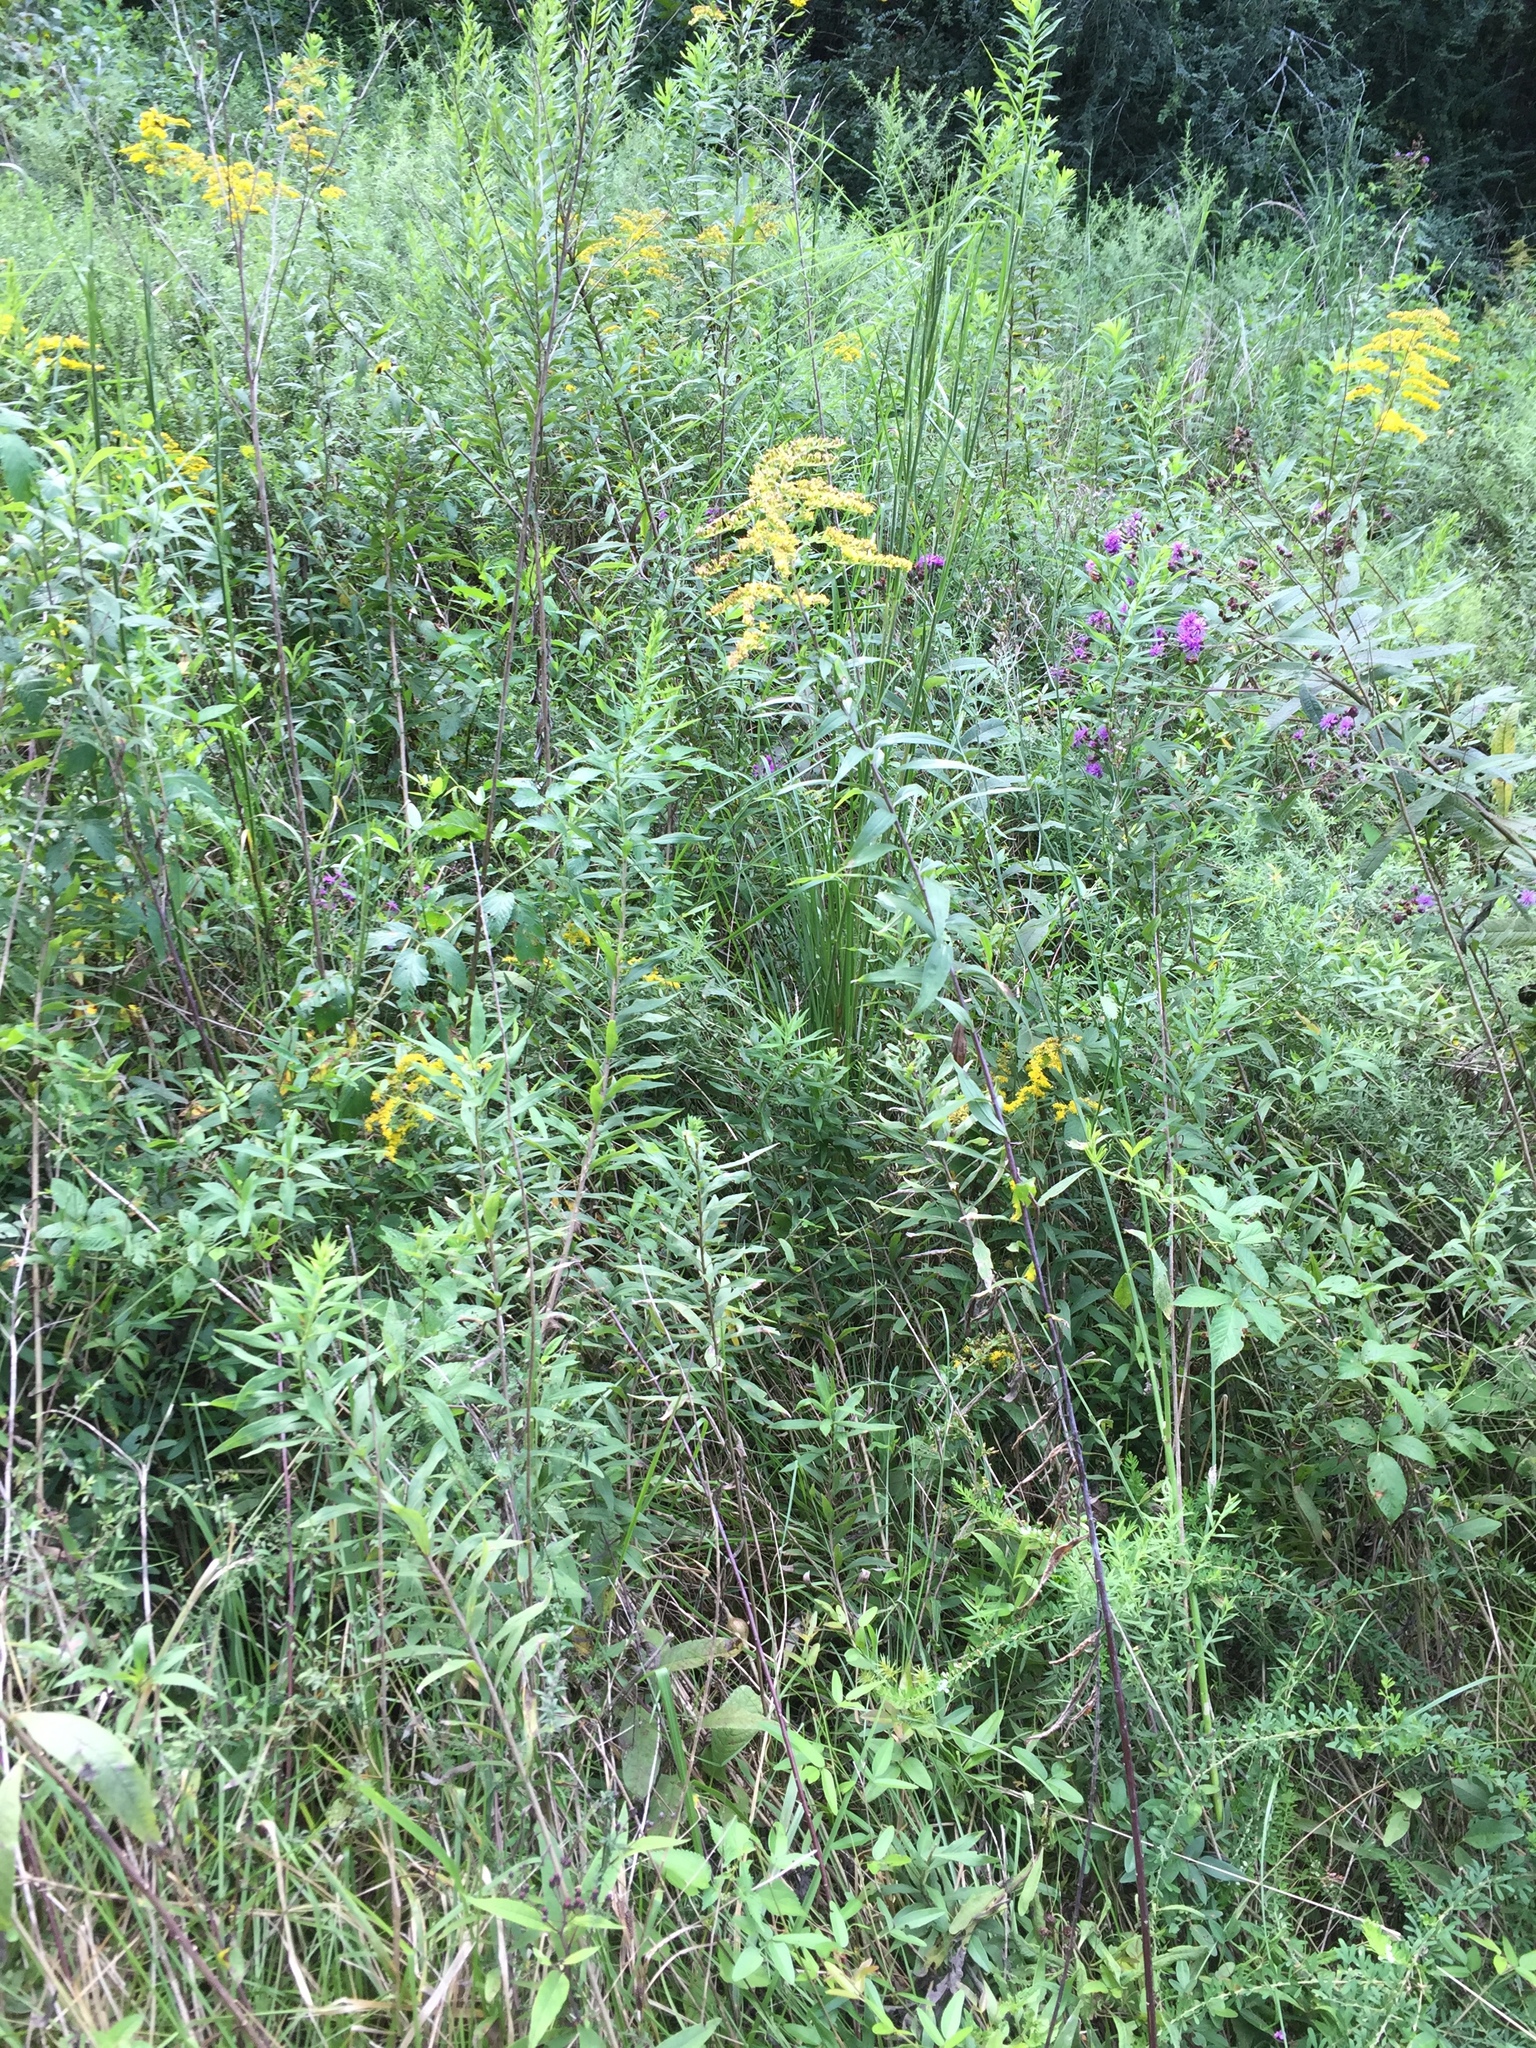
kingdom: Plantae
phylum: Tracheophyta
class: Magnoliopsida
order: Asterales
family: Asteraceae
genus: Solidago
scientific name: Solidago gigantea
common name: Giant goldenrod
